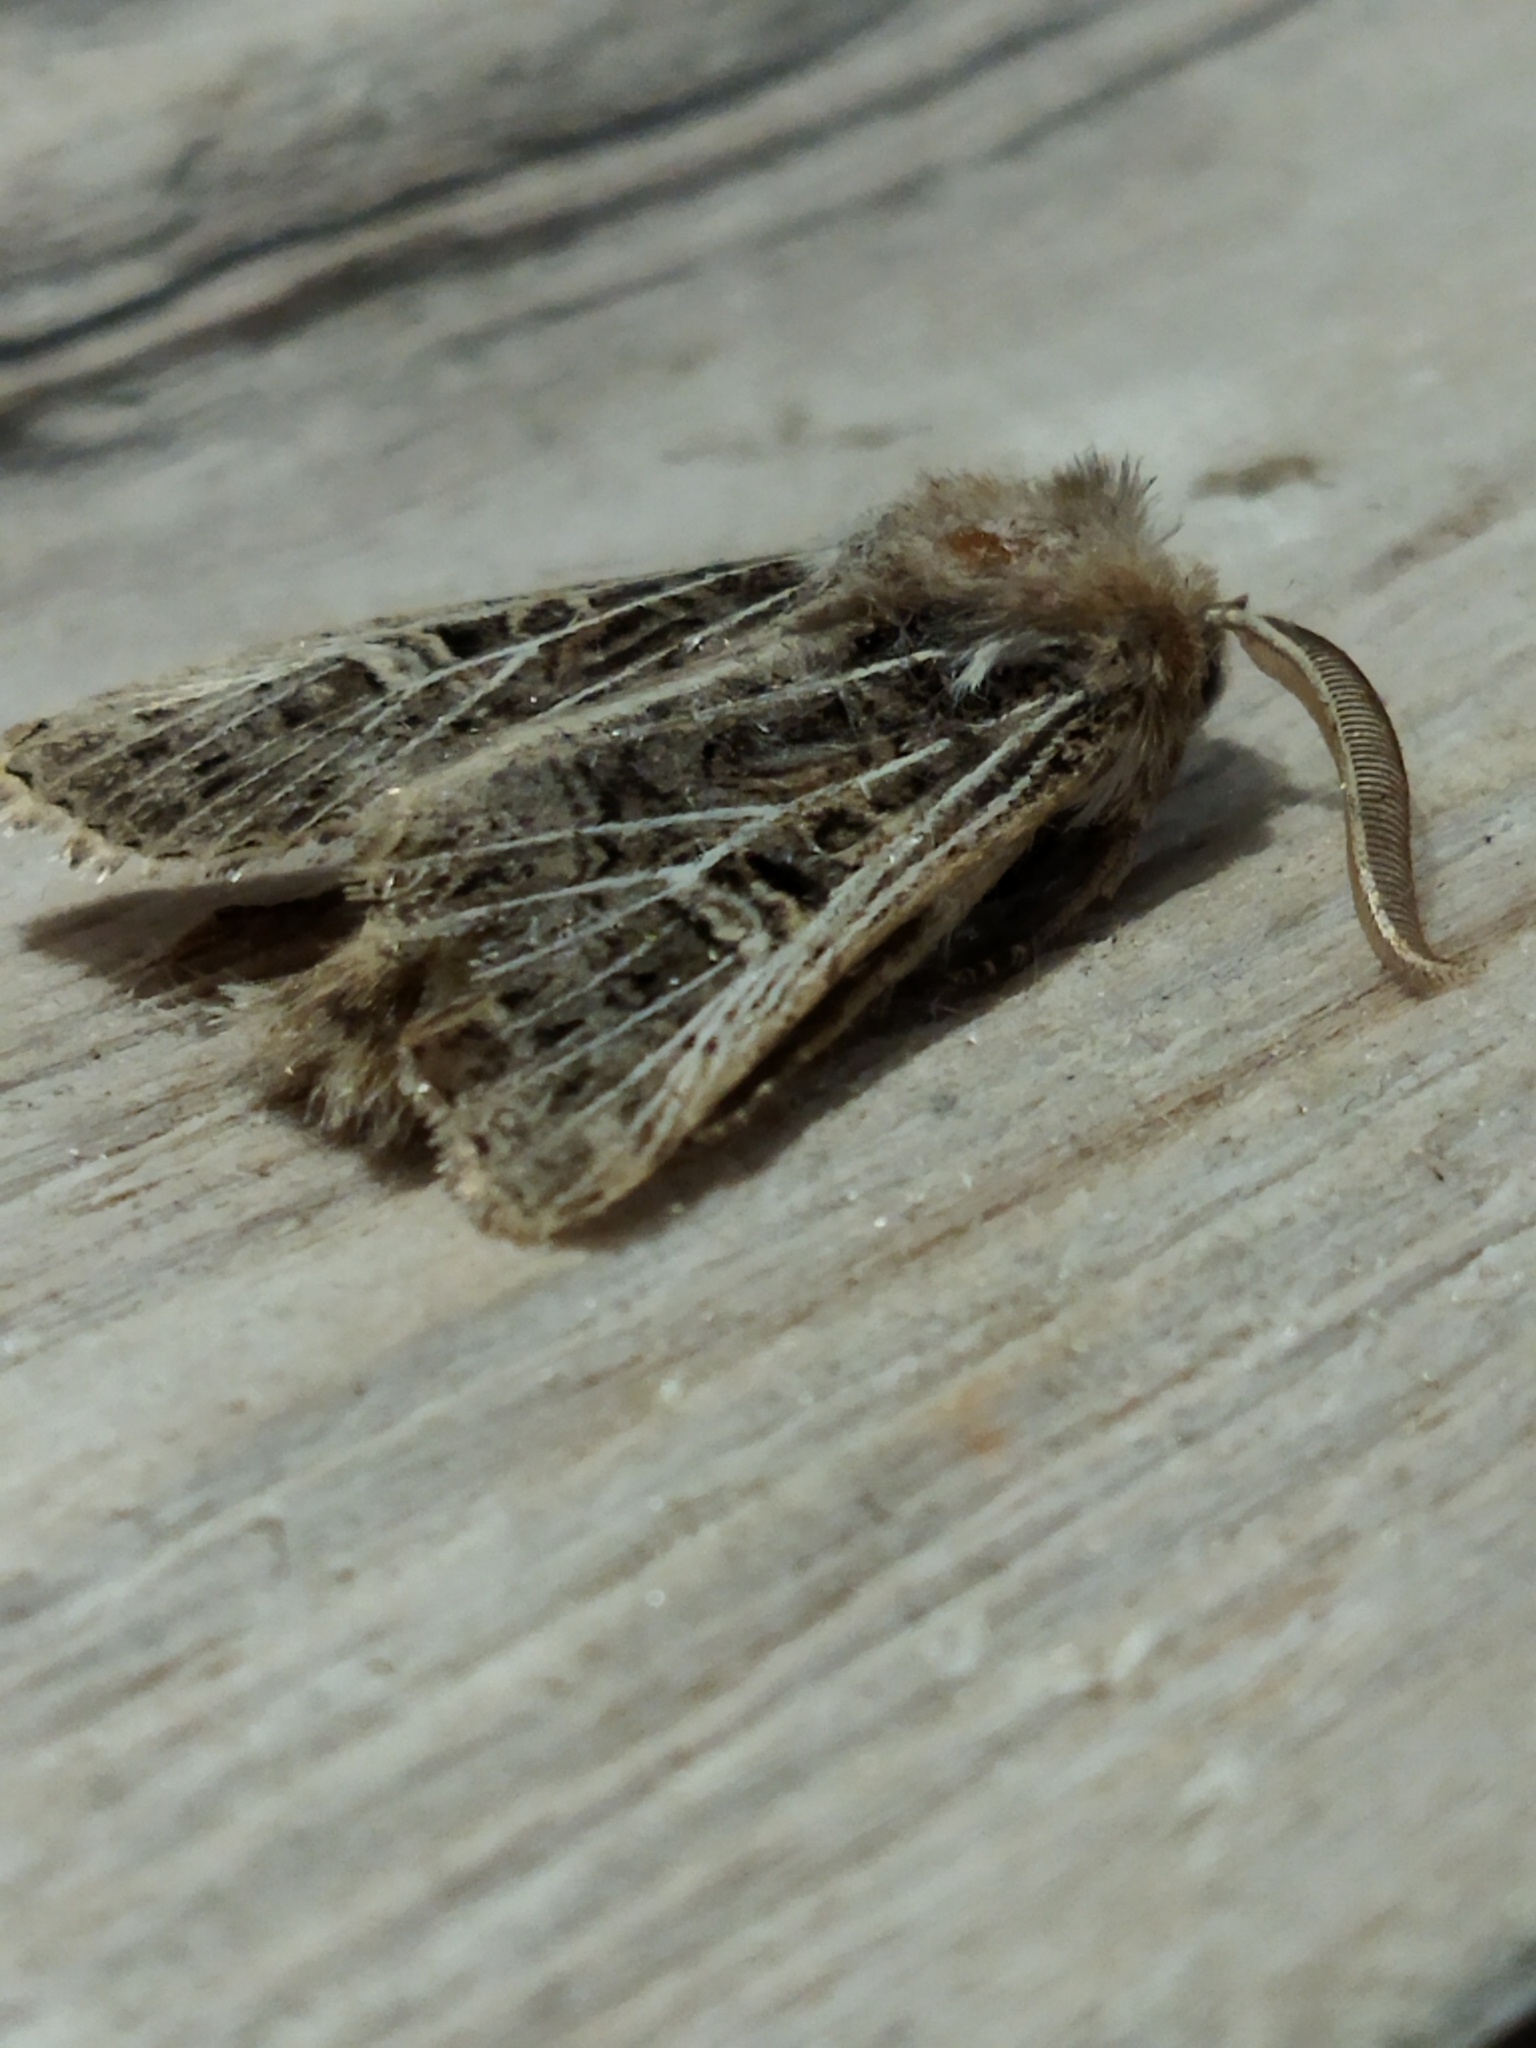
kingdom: Animalia
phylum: Arthropoda
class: Insecta
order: Lepidoptera
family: Noctuidae
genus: Tholera
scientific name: Tholera decimalis
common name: Feathered gothic
